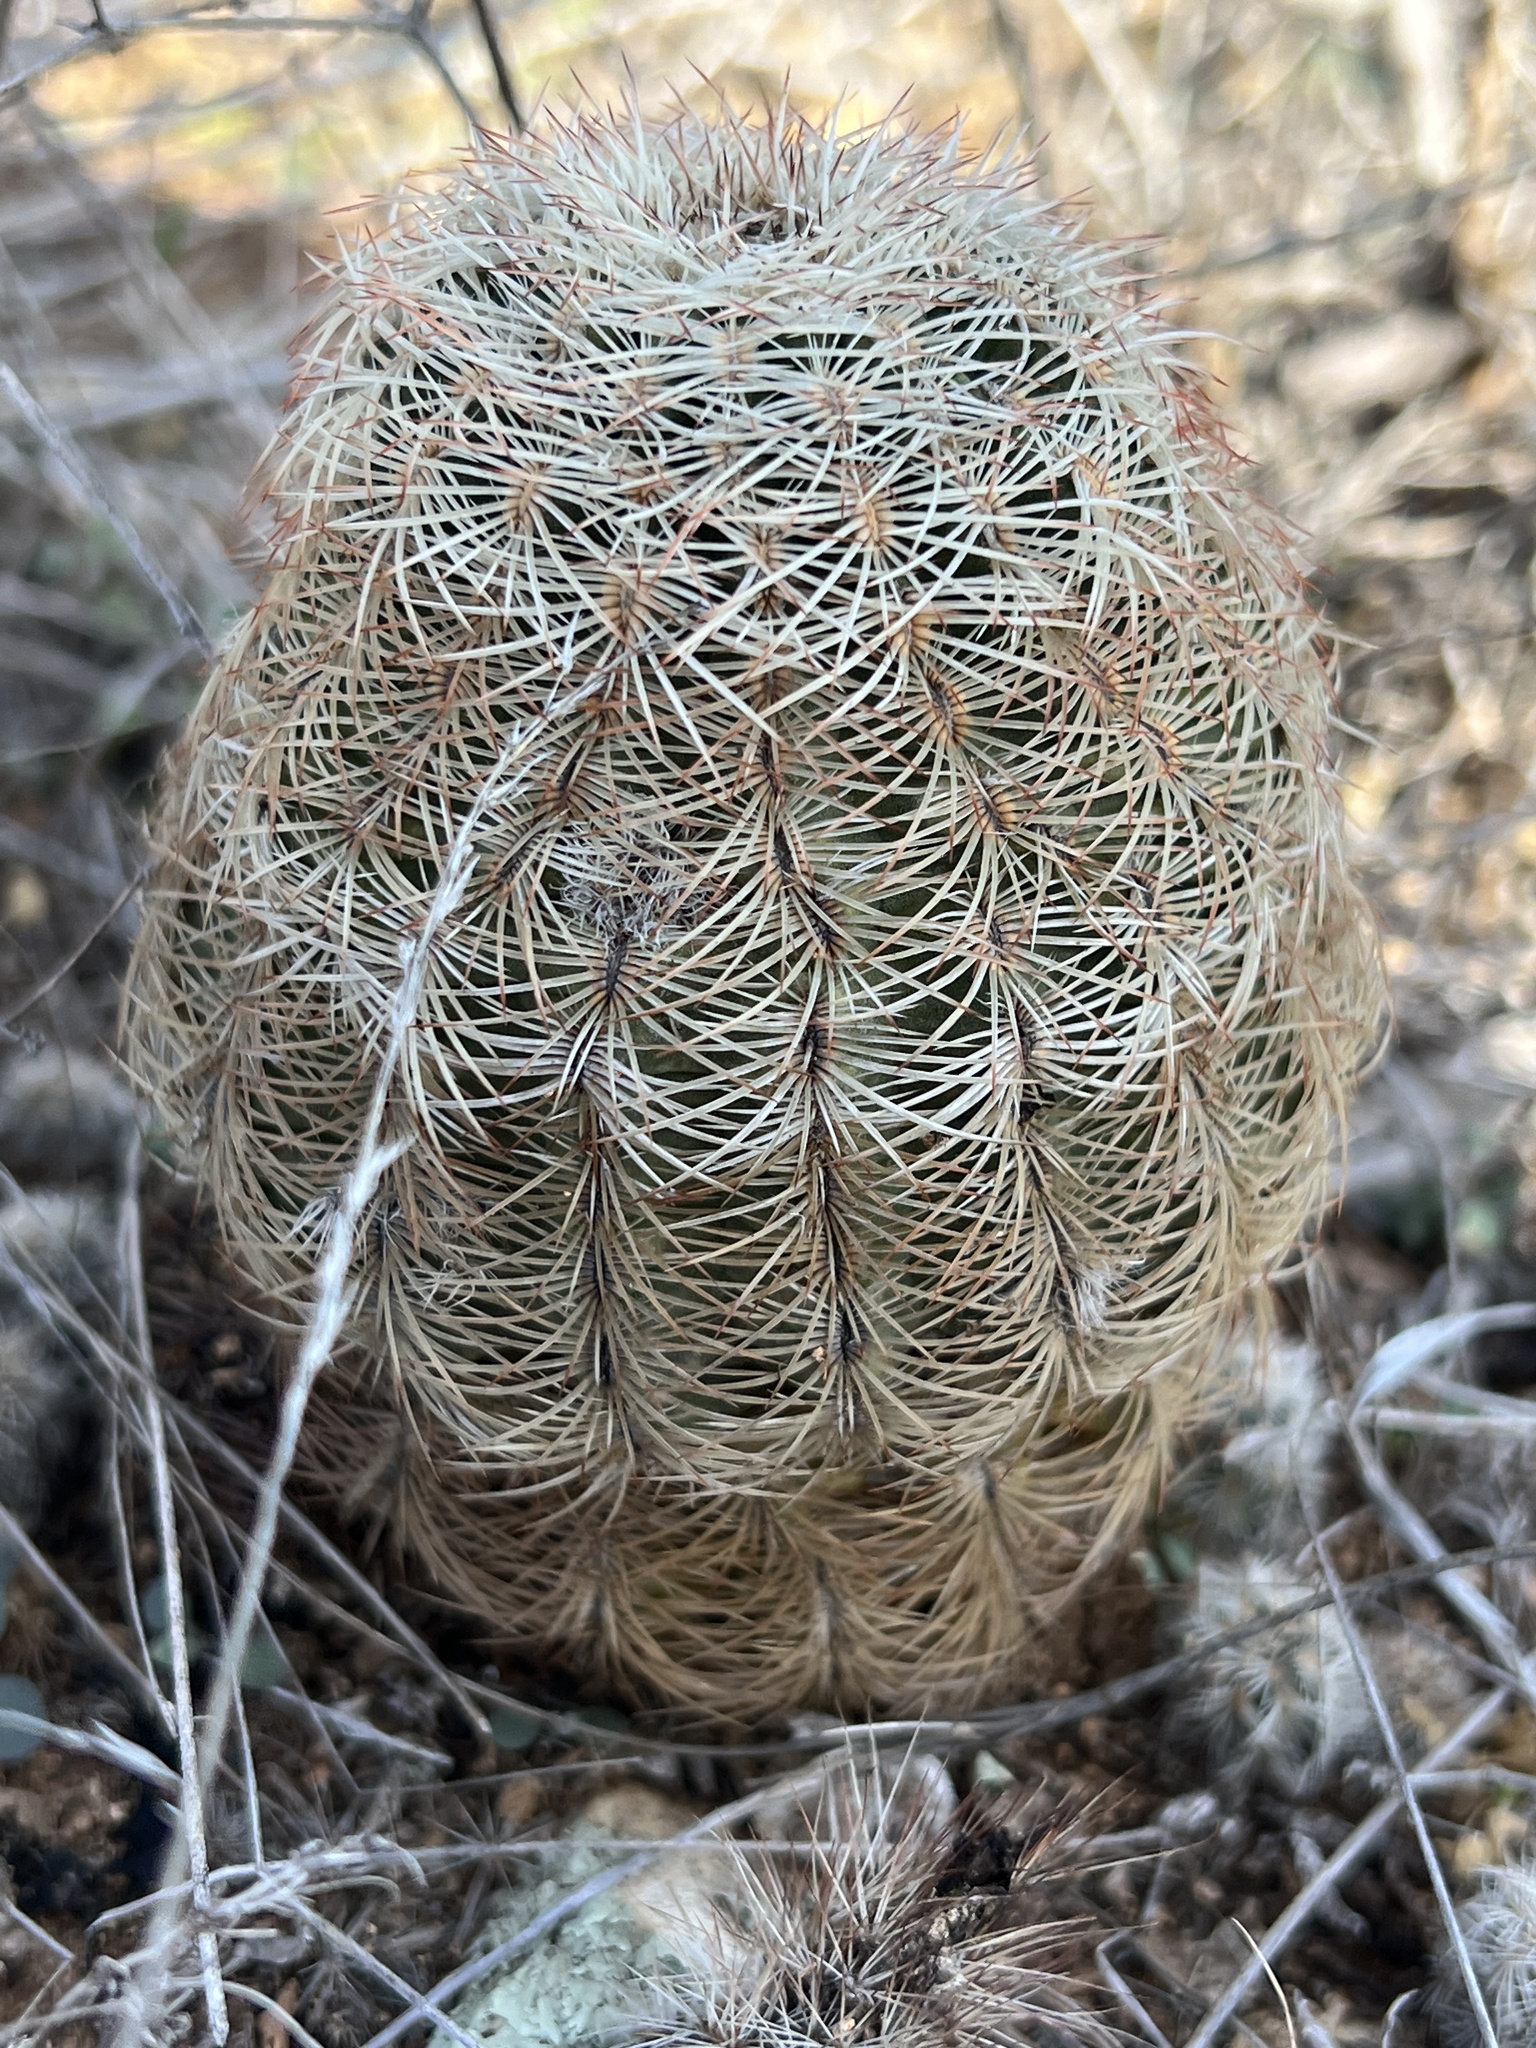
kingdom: Plantae
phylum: Tracheophyta
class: Magnoliopsida
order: Caryophyllales
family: Cactaceae
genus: Echinocereus
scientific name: Echinocereus reichenbachii
